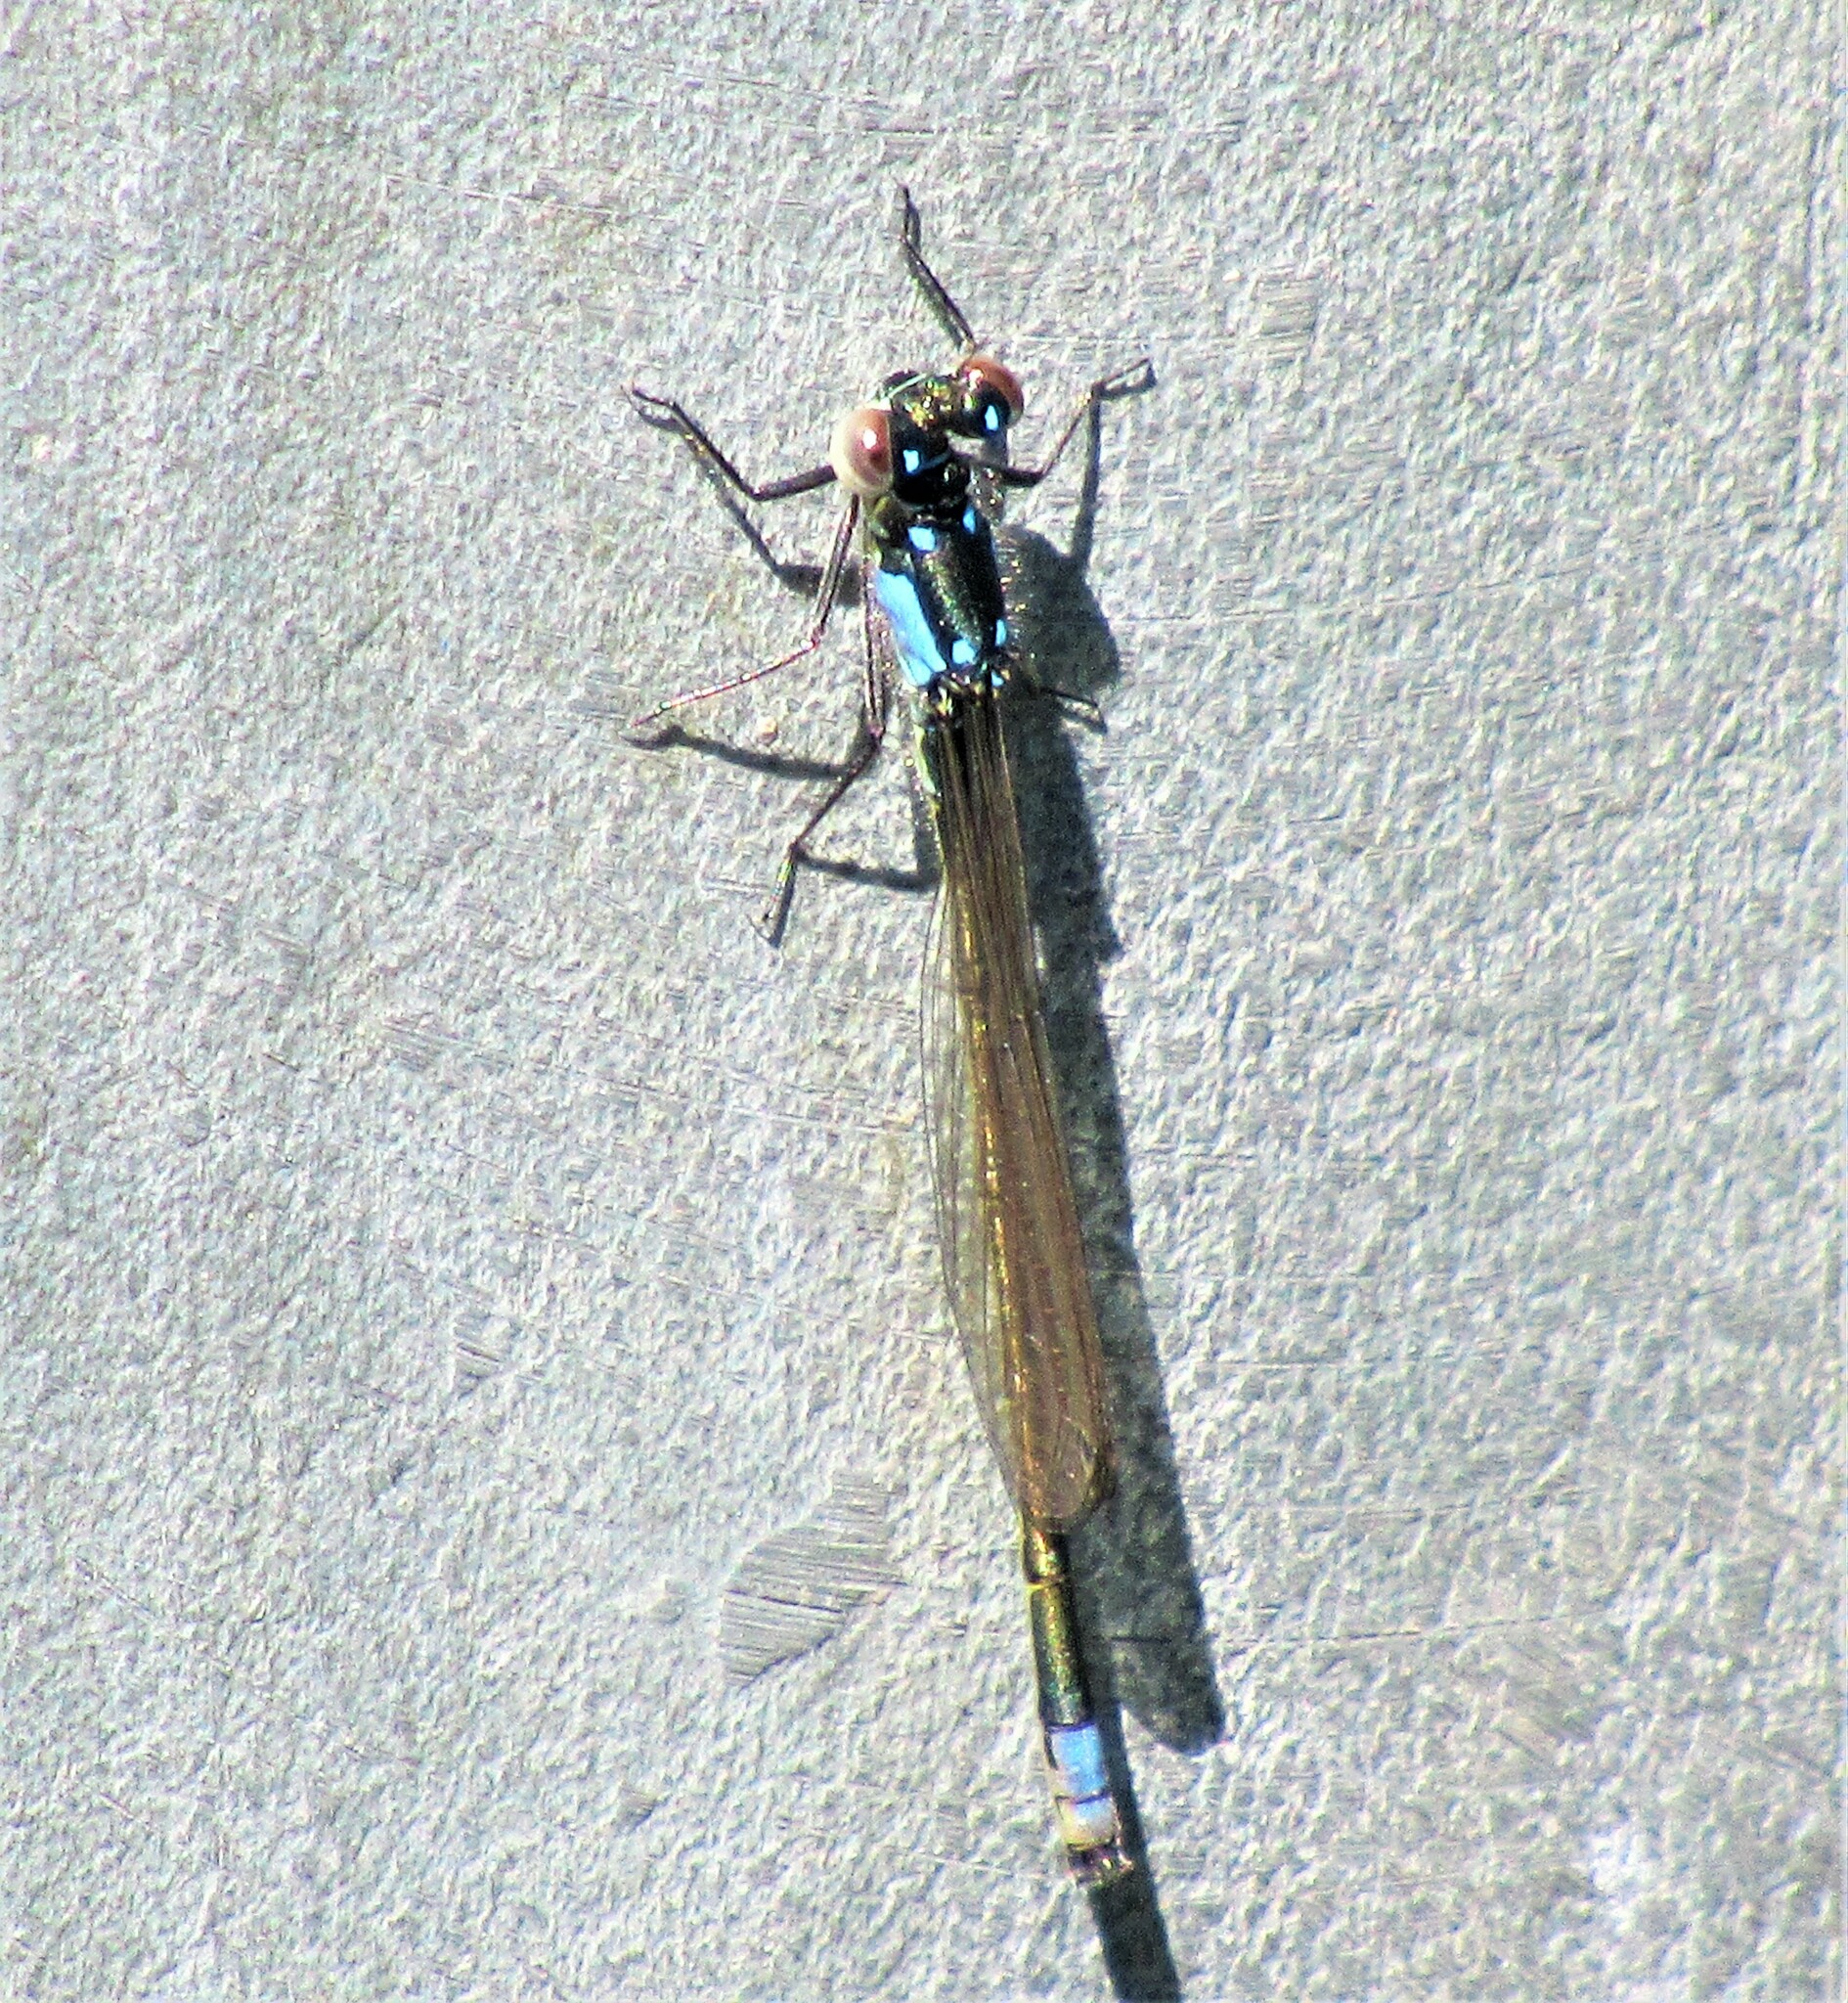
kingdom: Animalia
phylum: Arthropoda
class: Insecta
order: Odonata
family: Coenagrionidae
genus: Ischnura
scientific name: Ischnura cervula
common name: Pacific forktail
